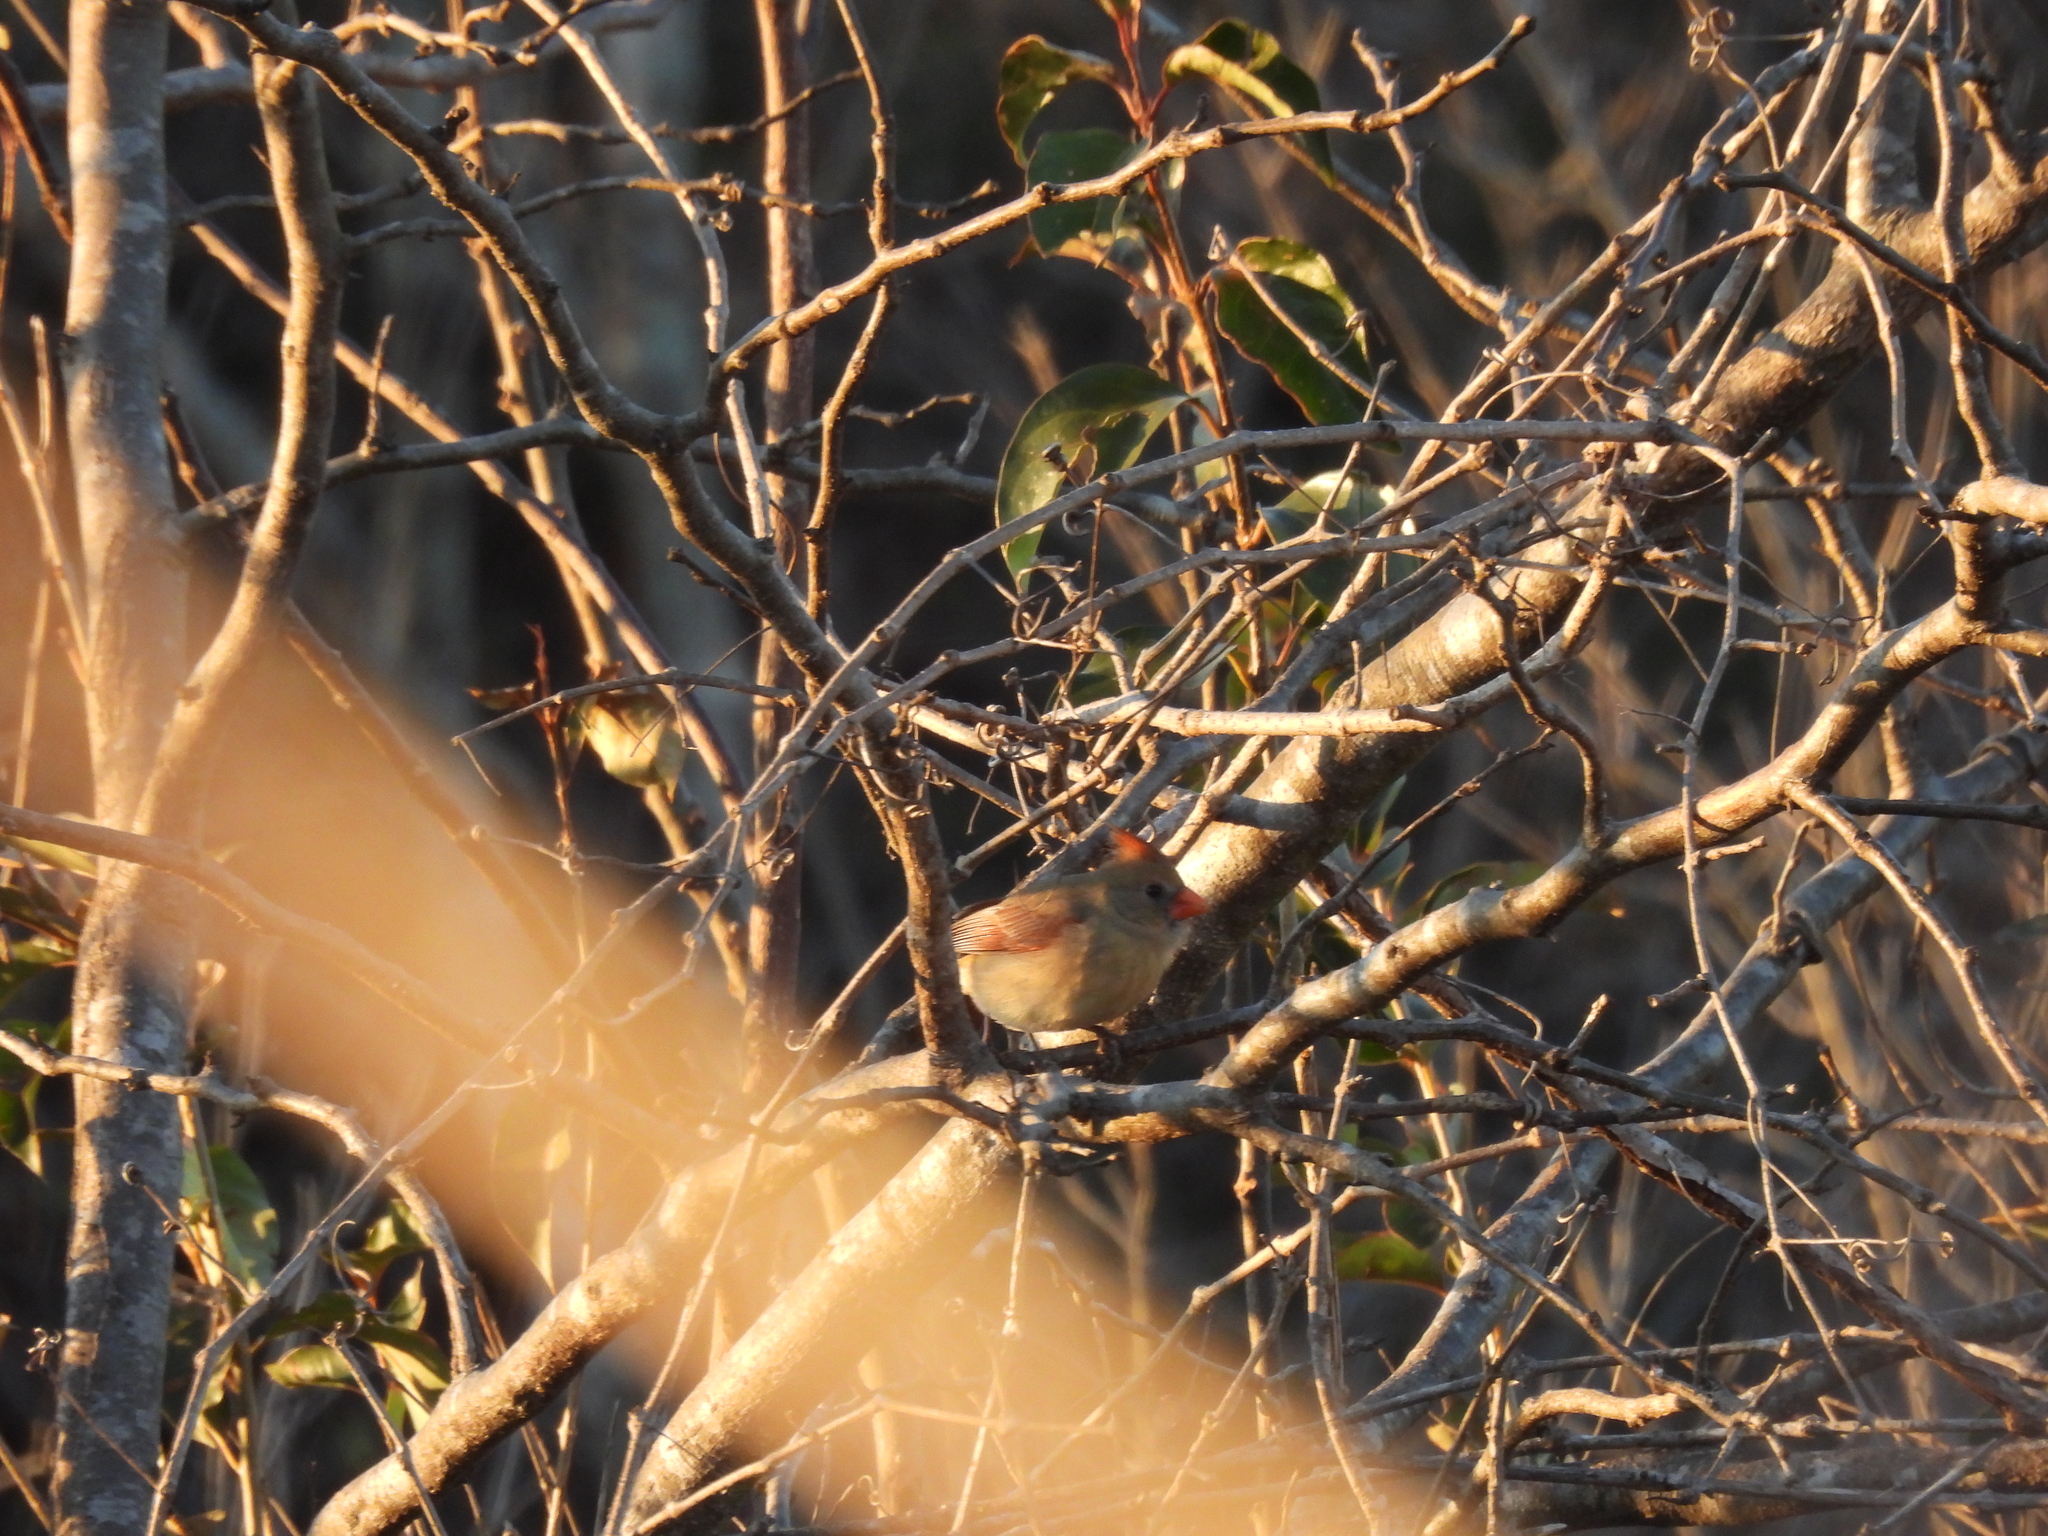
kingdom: Animalia
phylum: Chordata
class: Aves
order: Passeriformes
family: Cardinalidae
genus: Cardinalis
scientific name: Cardinalis cardinalis
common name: Northern cardinal
